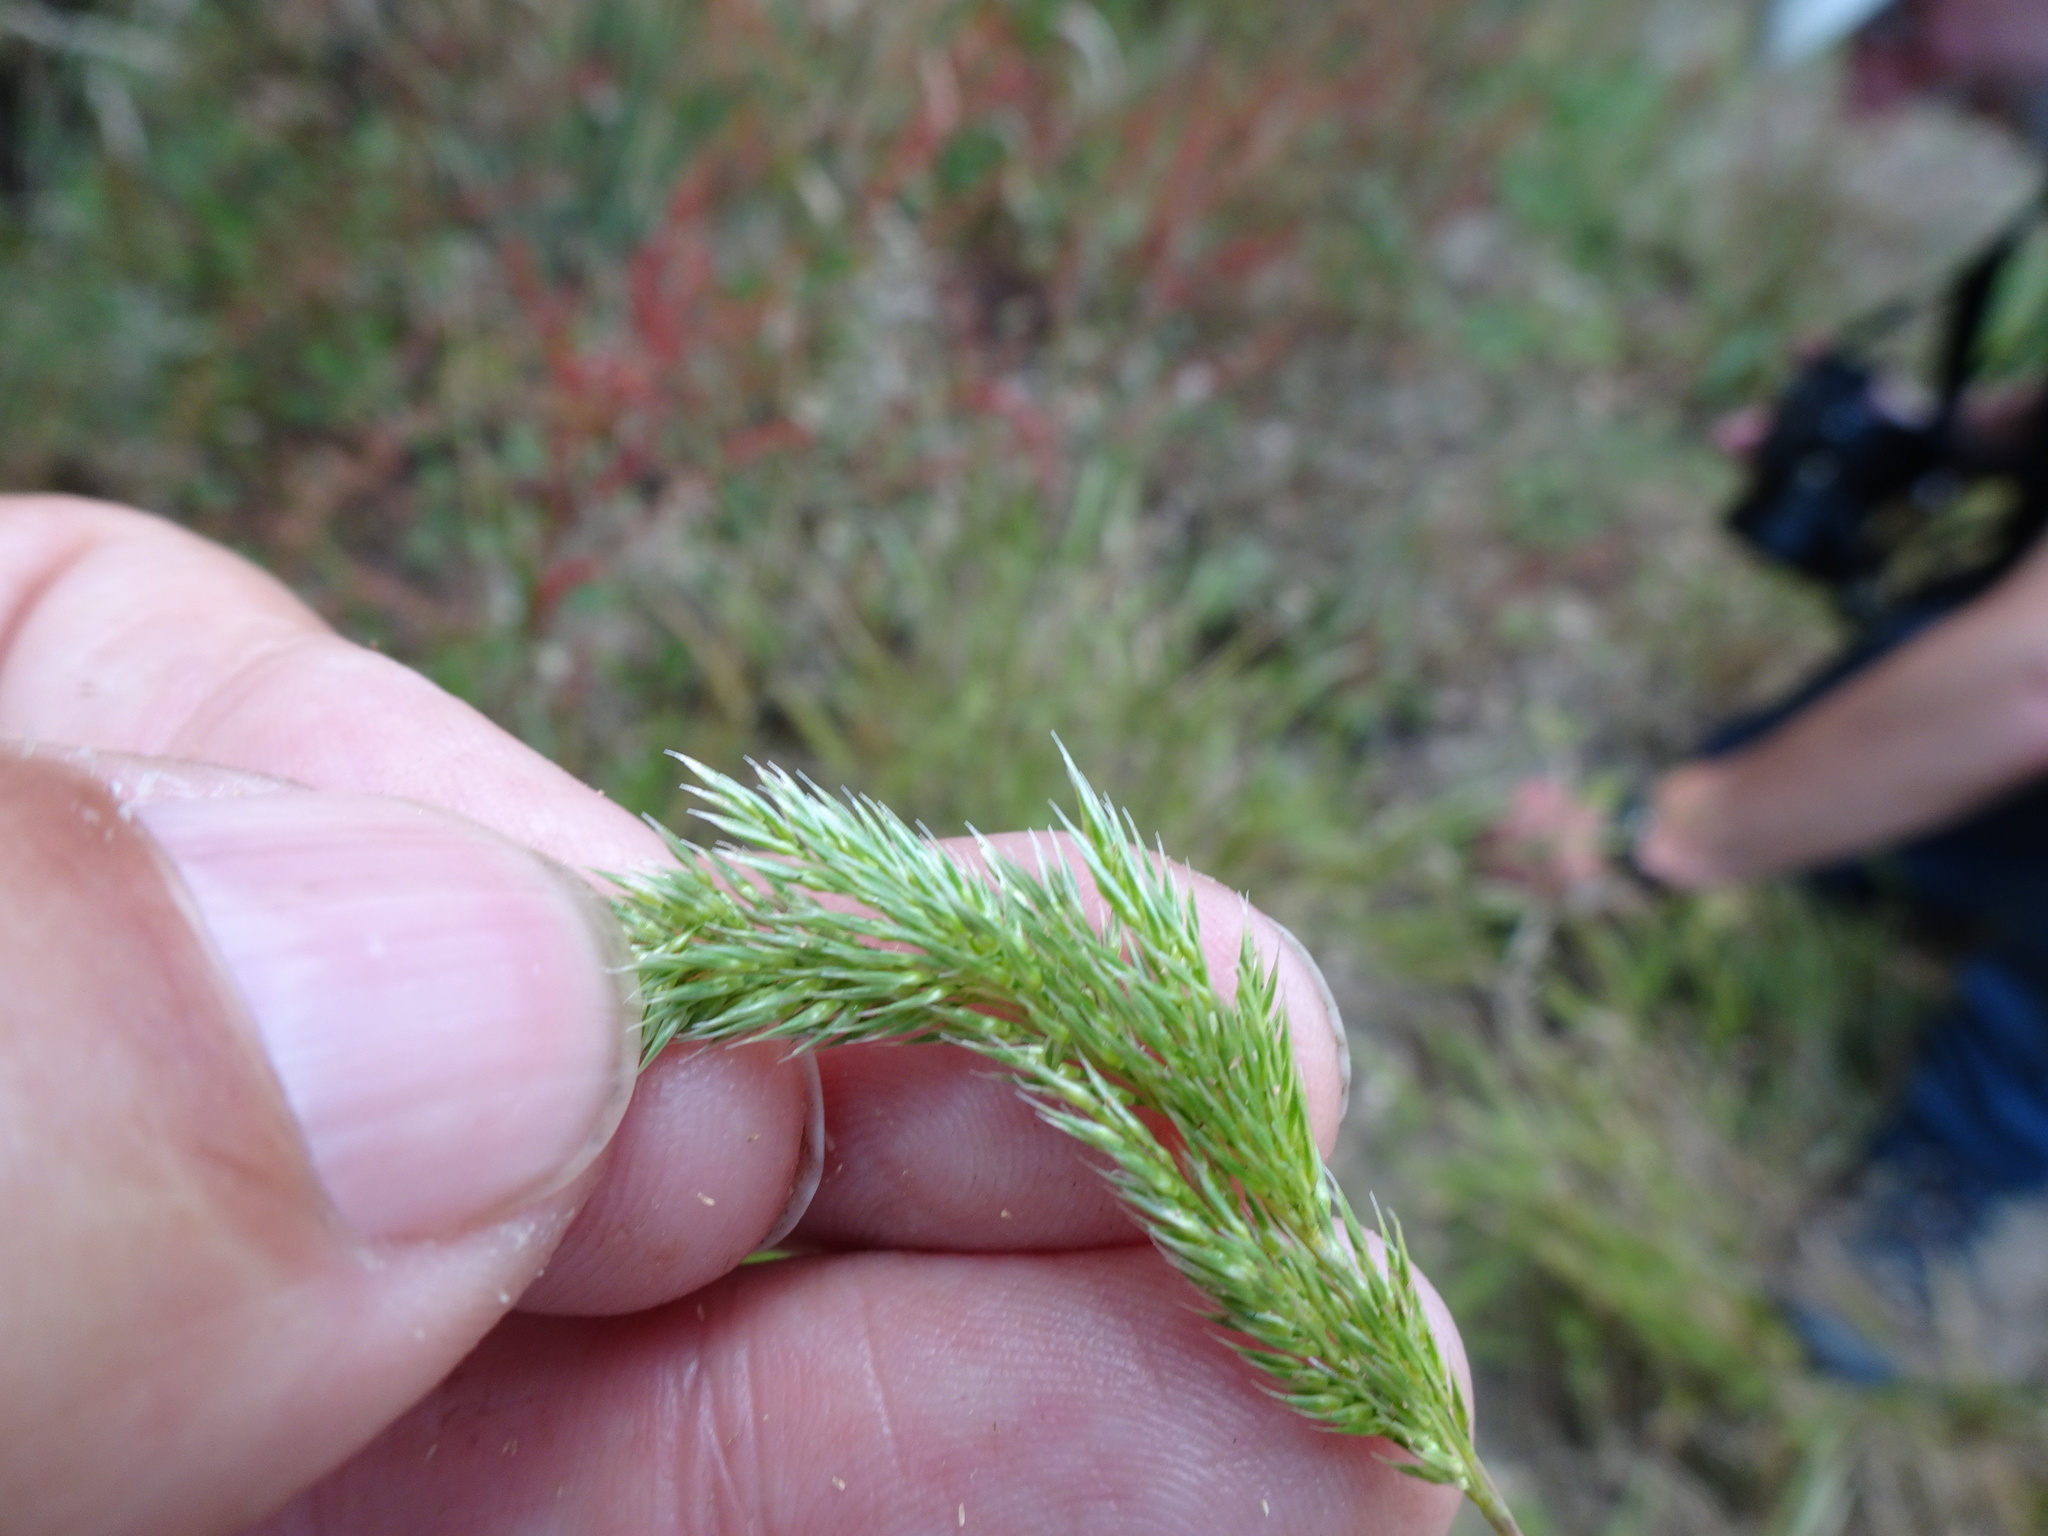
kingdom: Plantae
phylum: Tracheophyta
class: Liliopsida
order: Poales
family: Poaceae
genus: Gastridium
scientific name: Gastridium ventricosum
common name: Nit-grass
